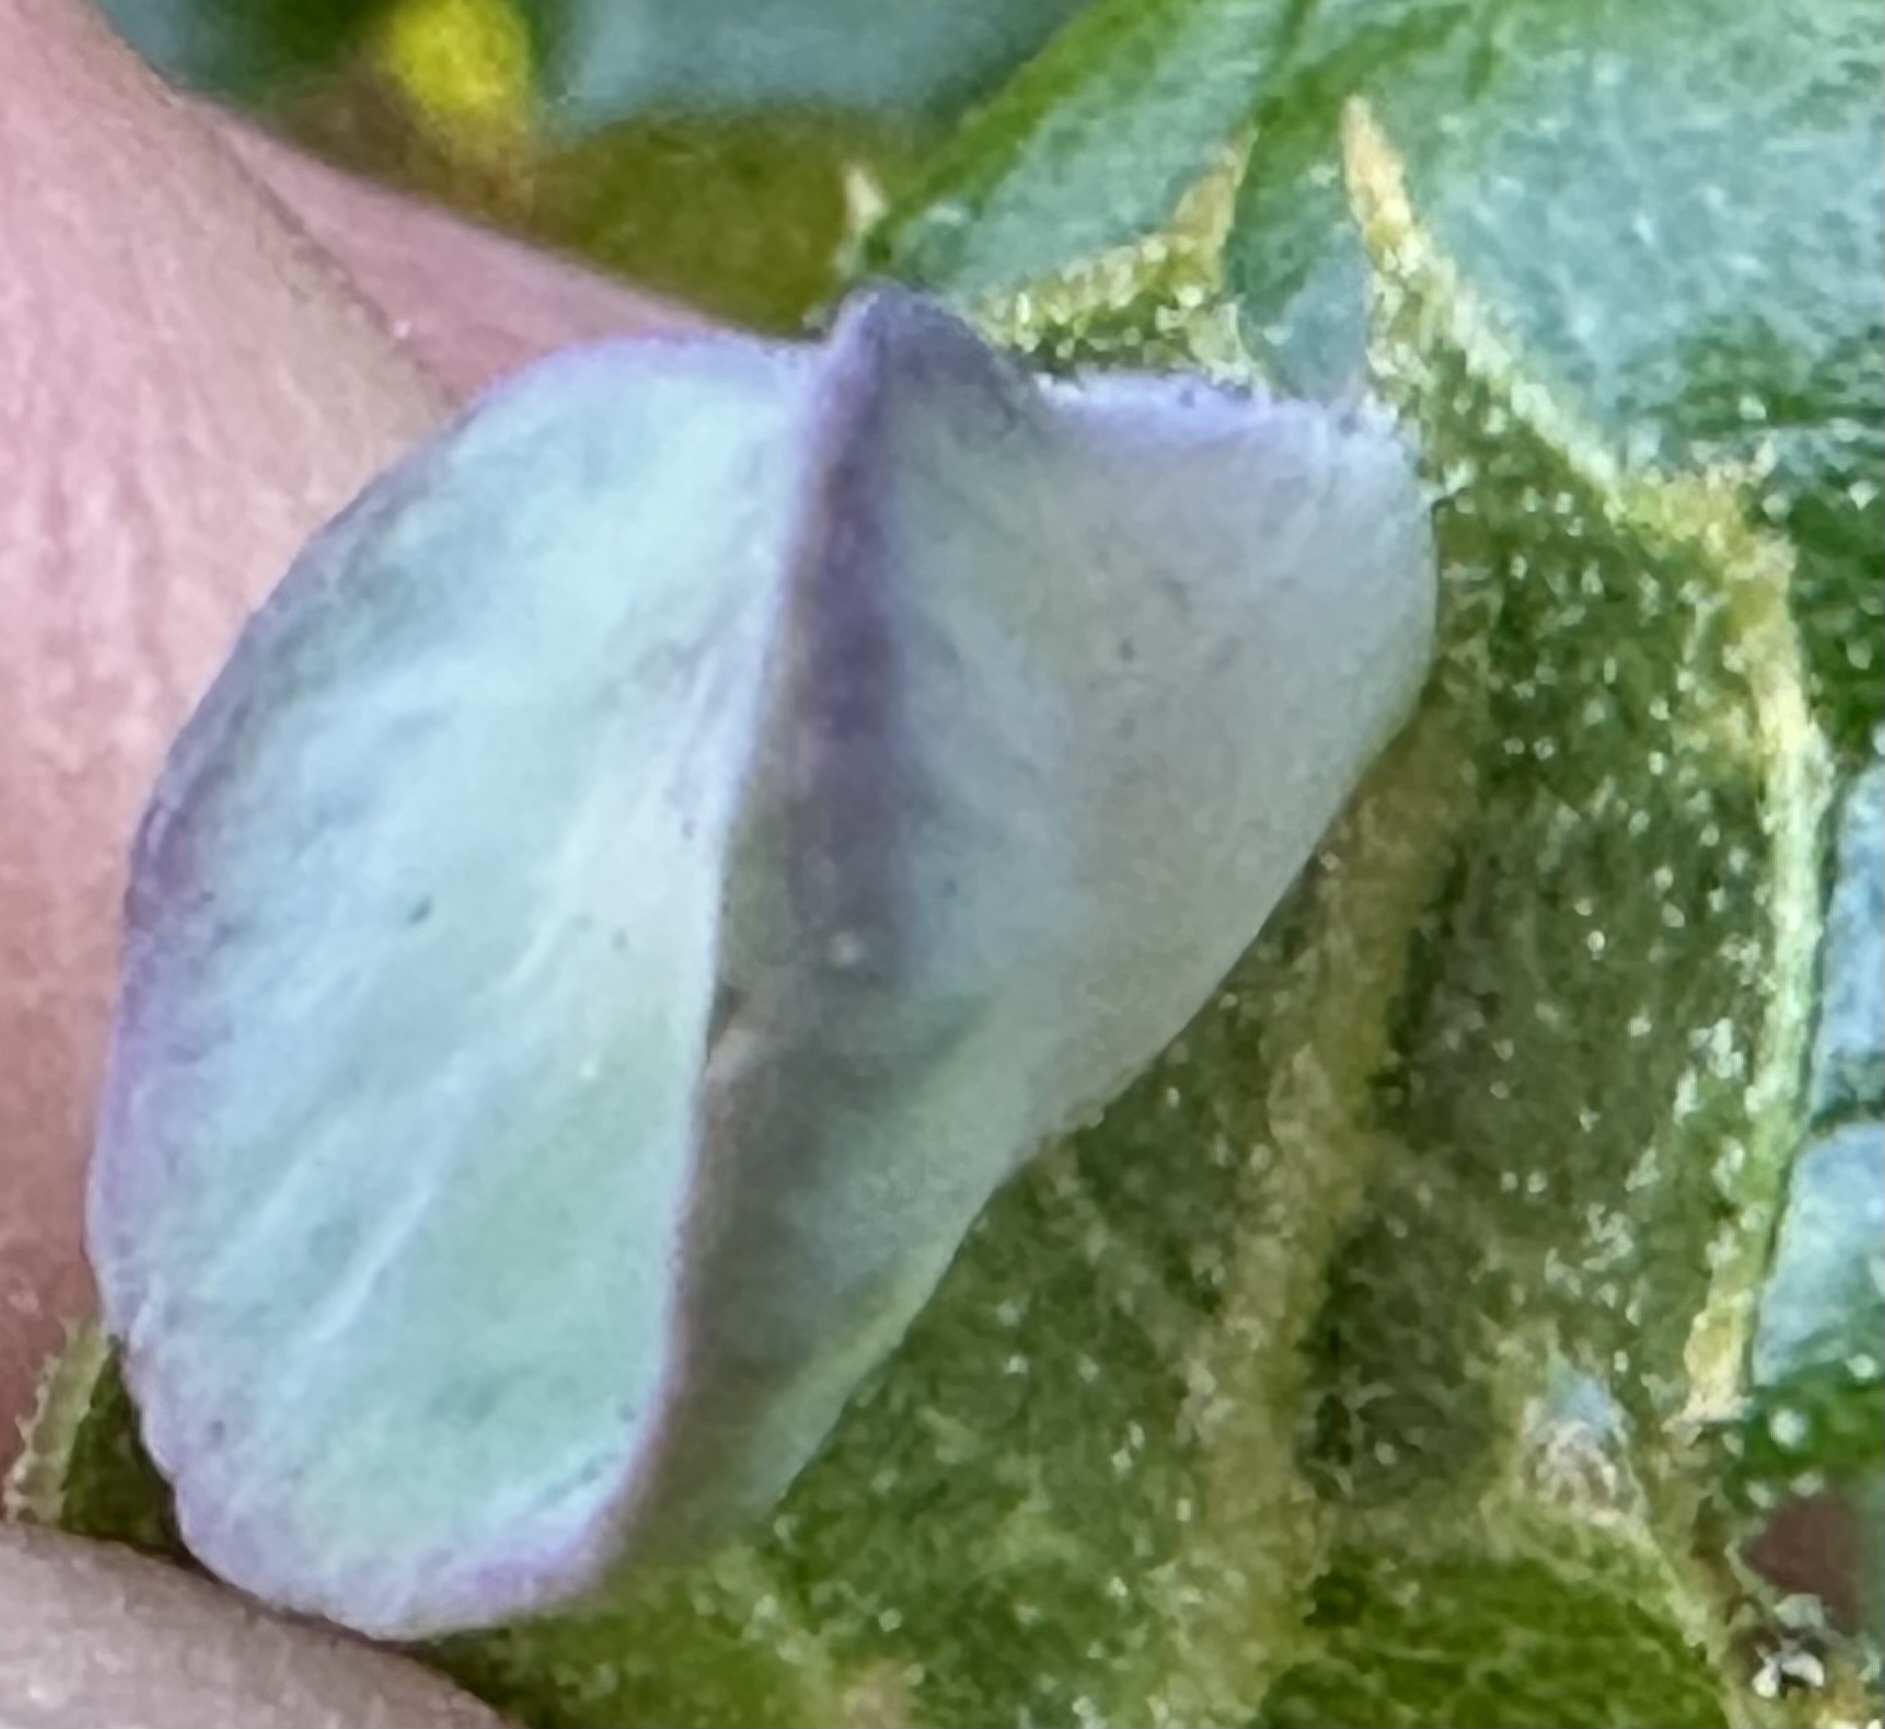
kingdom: Animalia
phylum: Arthropoda
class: Insecta
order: Hymenoptera
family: Cynipidae
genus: Amphibolips
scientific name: Amphibolips quercuspomiformis
